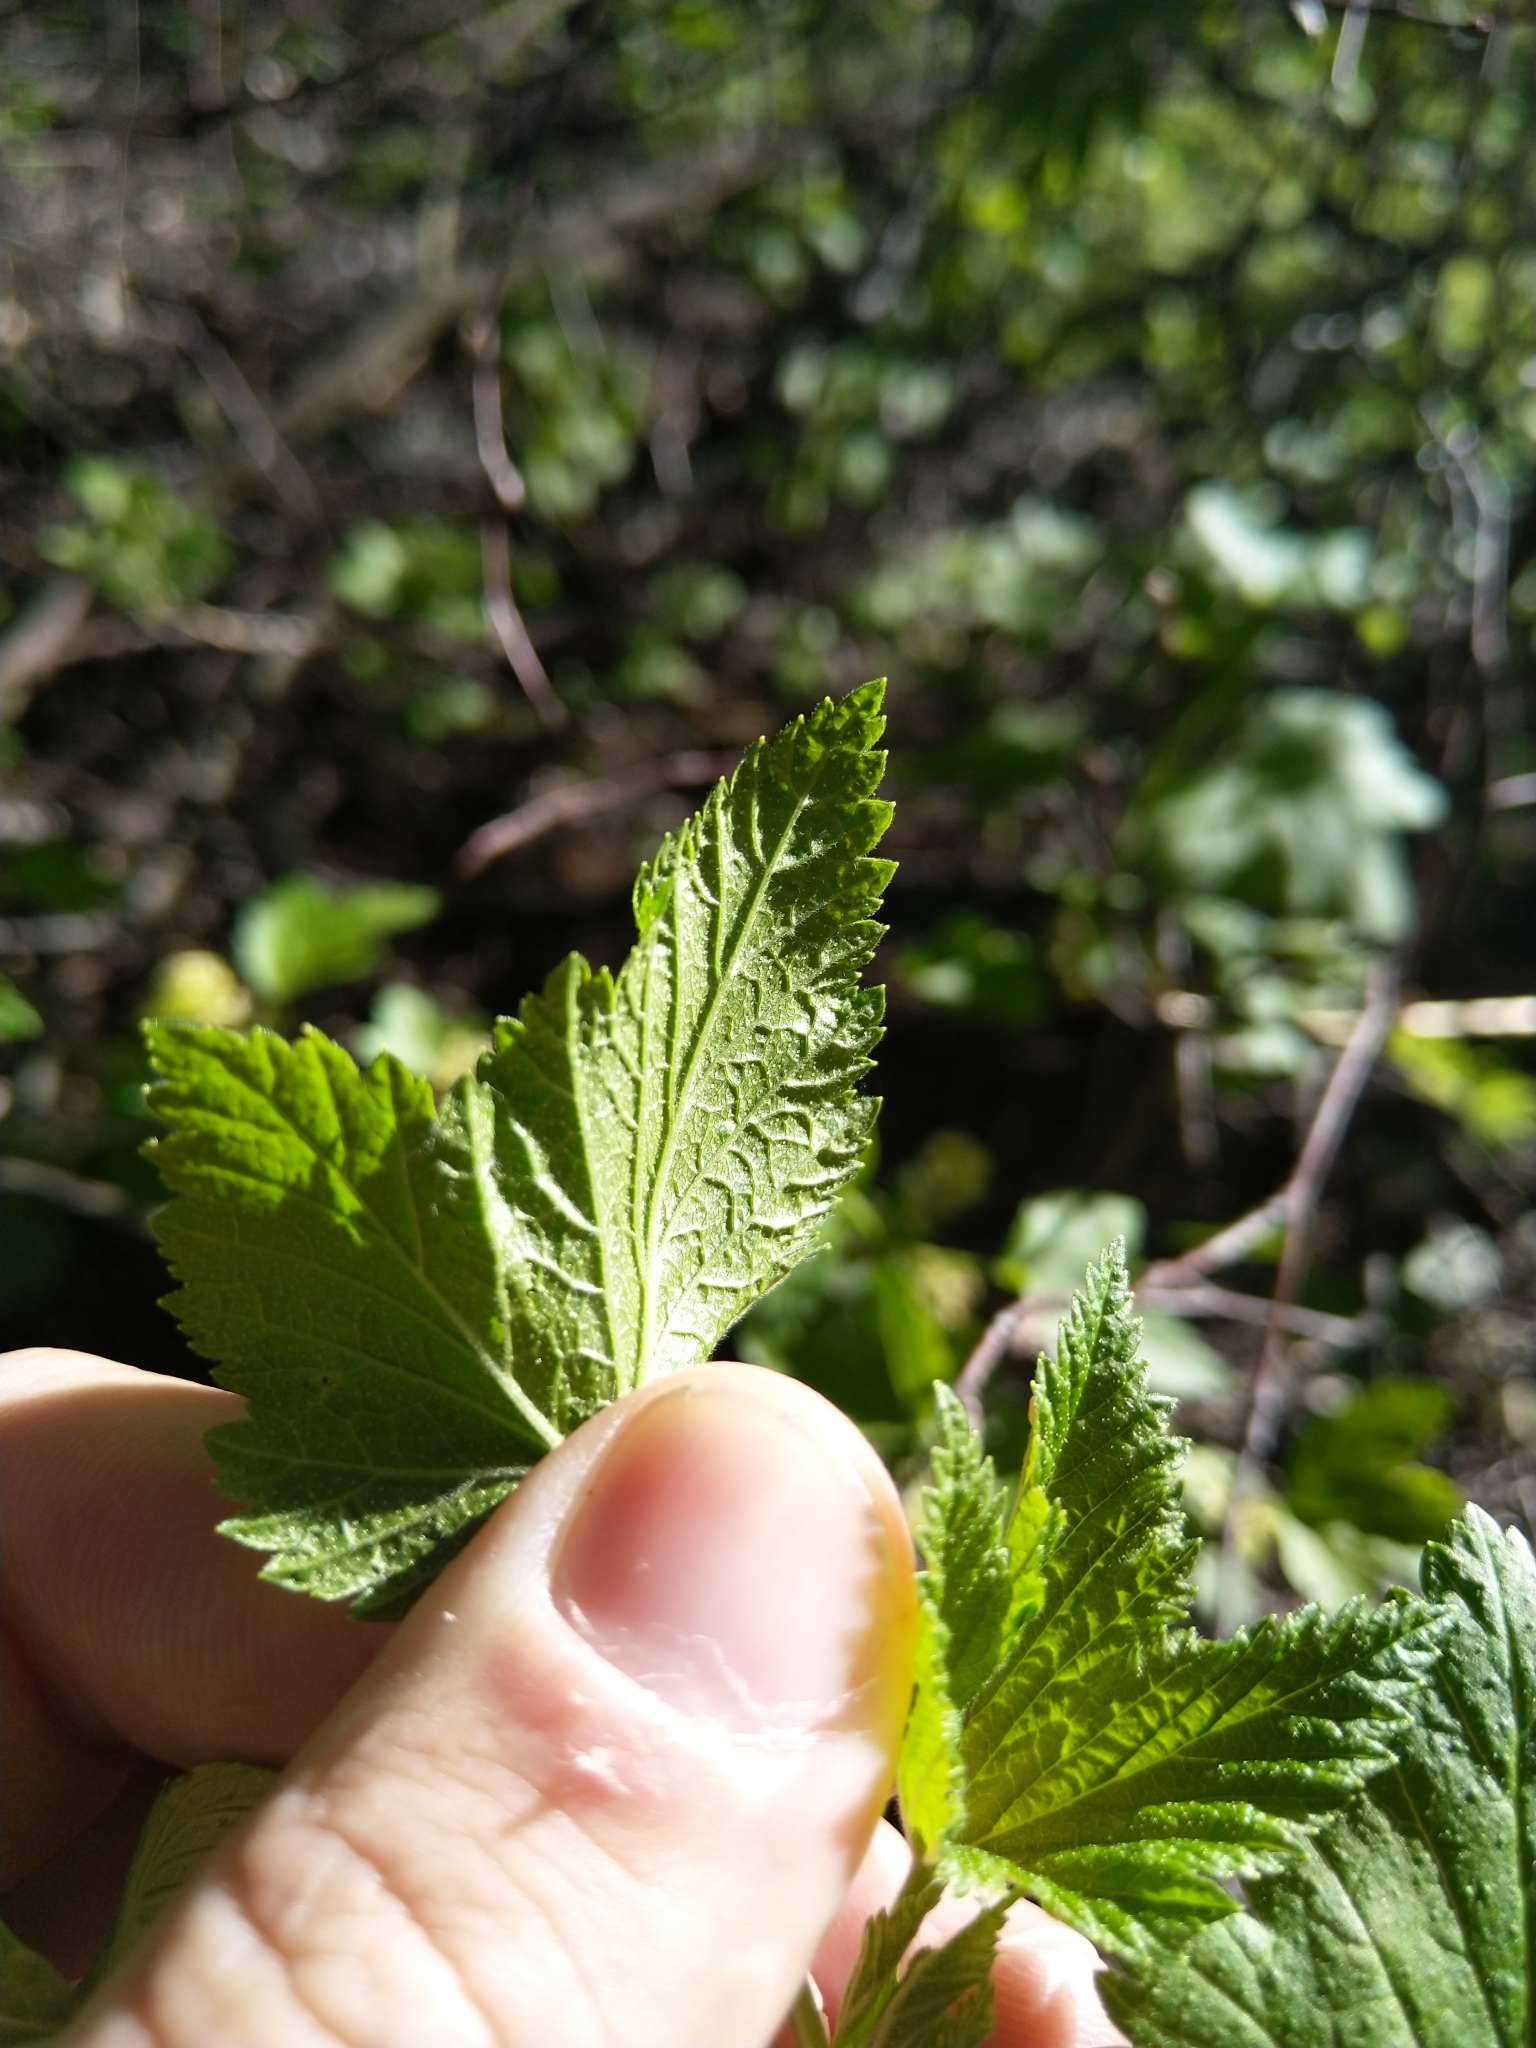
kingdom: Plantae
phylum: Tracheophyta
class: Magnoliopsida
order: Saxifragales
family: Grossulariaceae
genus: Ribes
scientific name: Ribes nigrum
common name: Black currant
